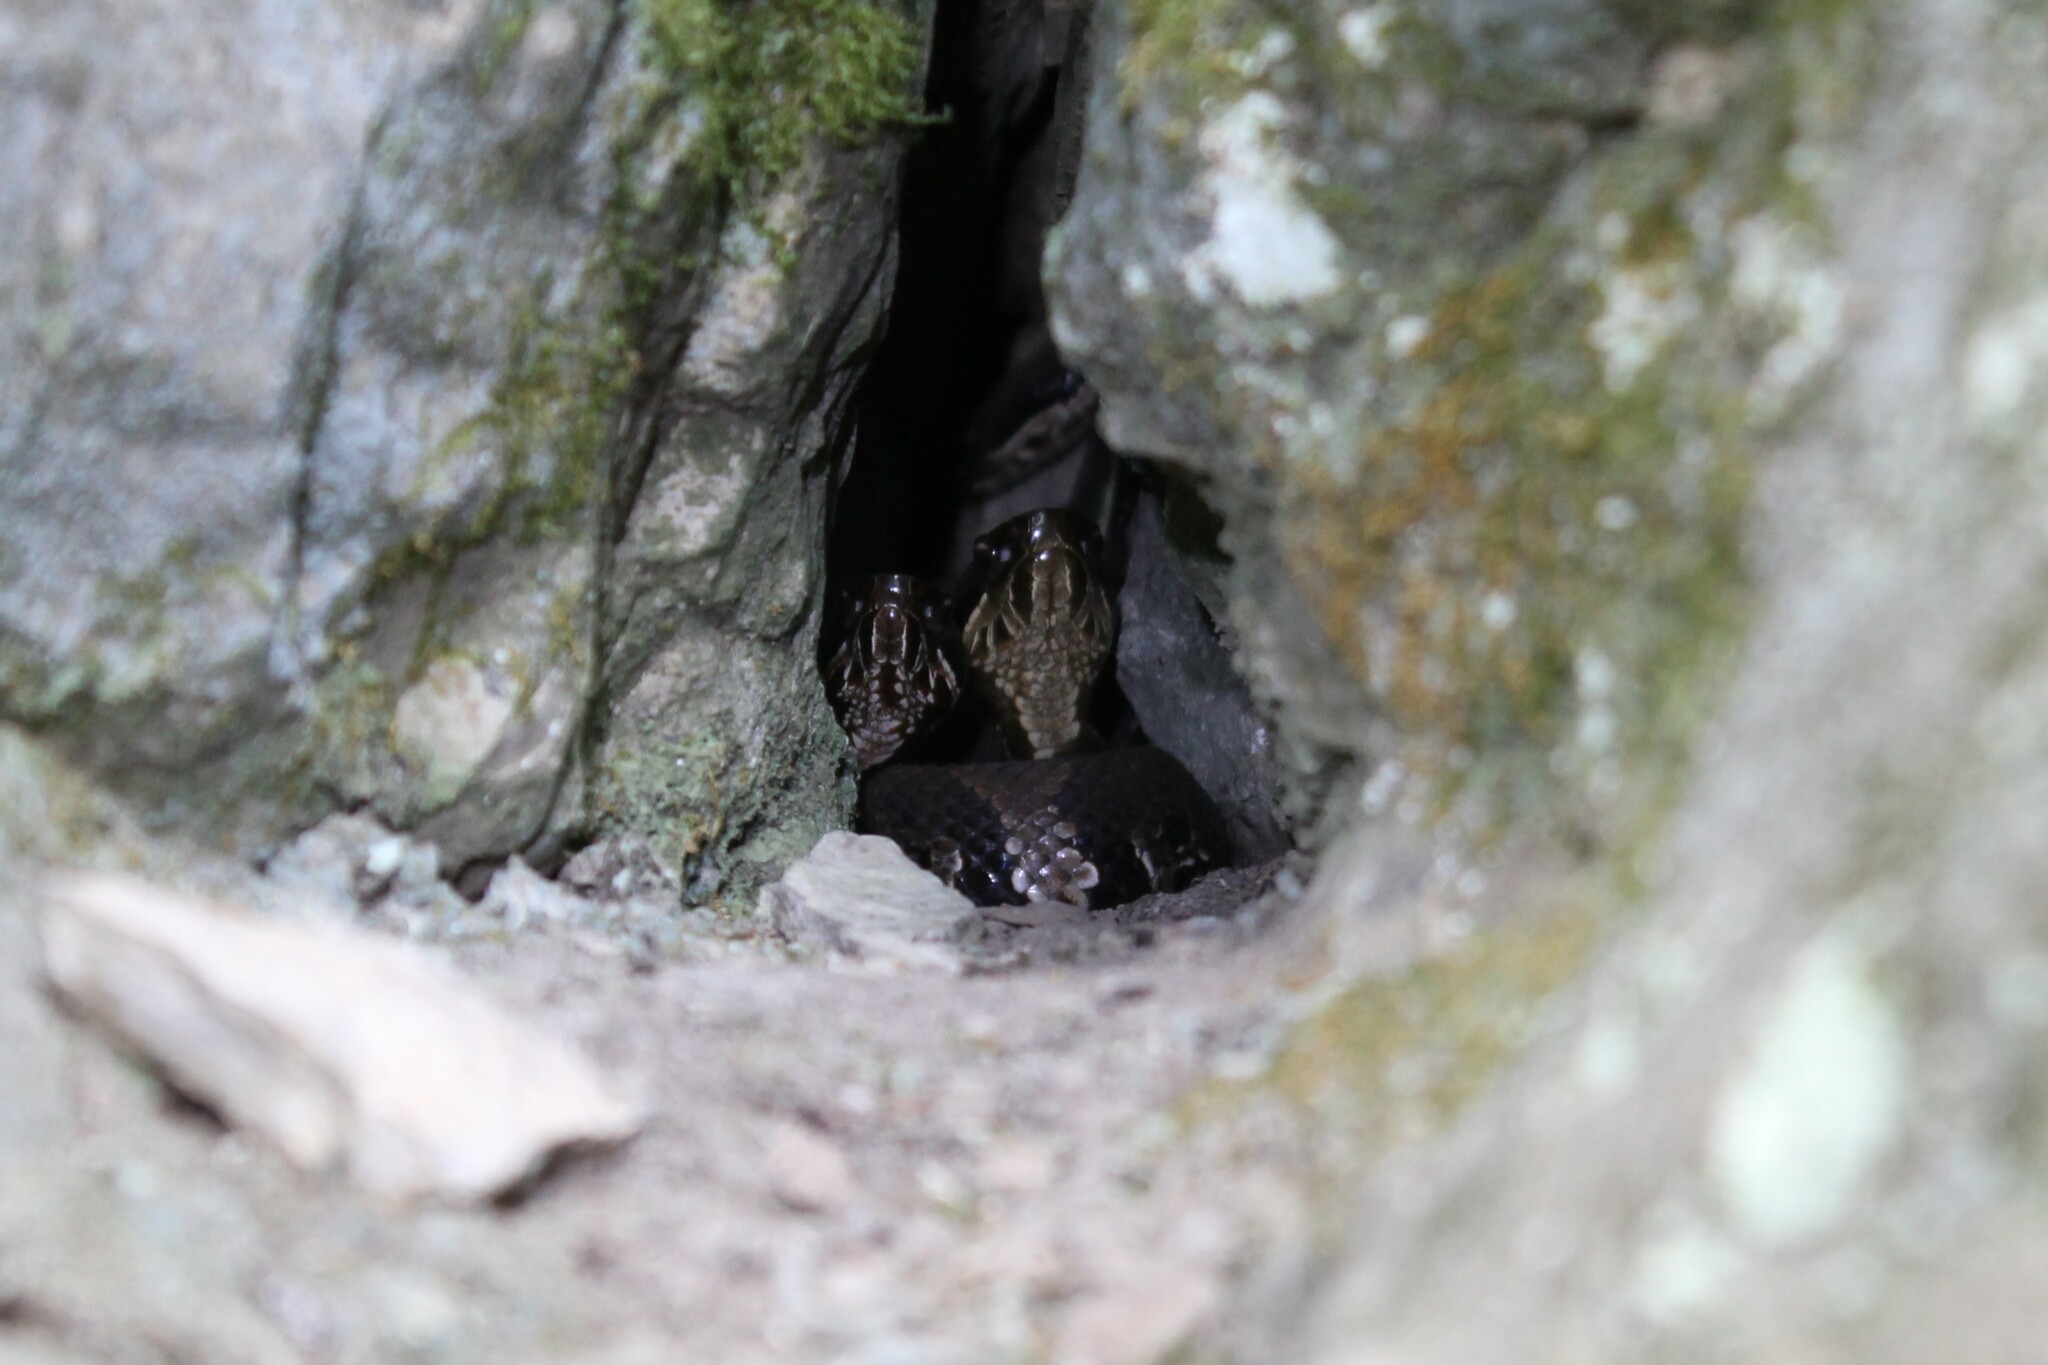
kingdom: Animalia
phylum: Chordata
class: Squamata
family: Viperidae
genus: Agkistrodon
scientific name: Agkistrodon piscivorus
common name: Cottonmouth
